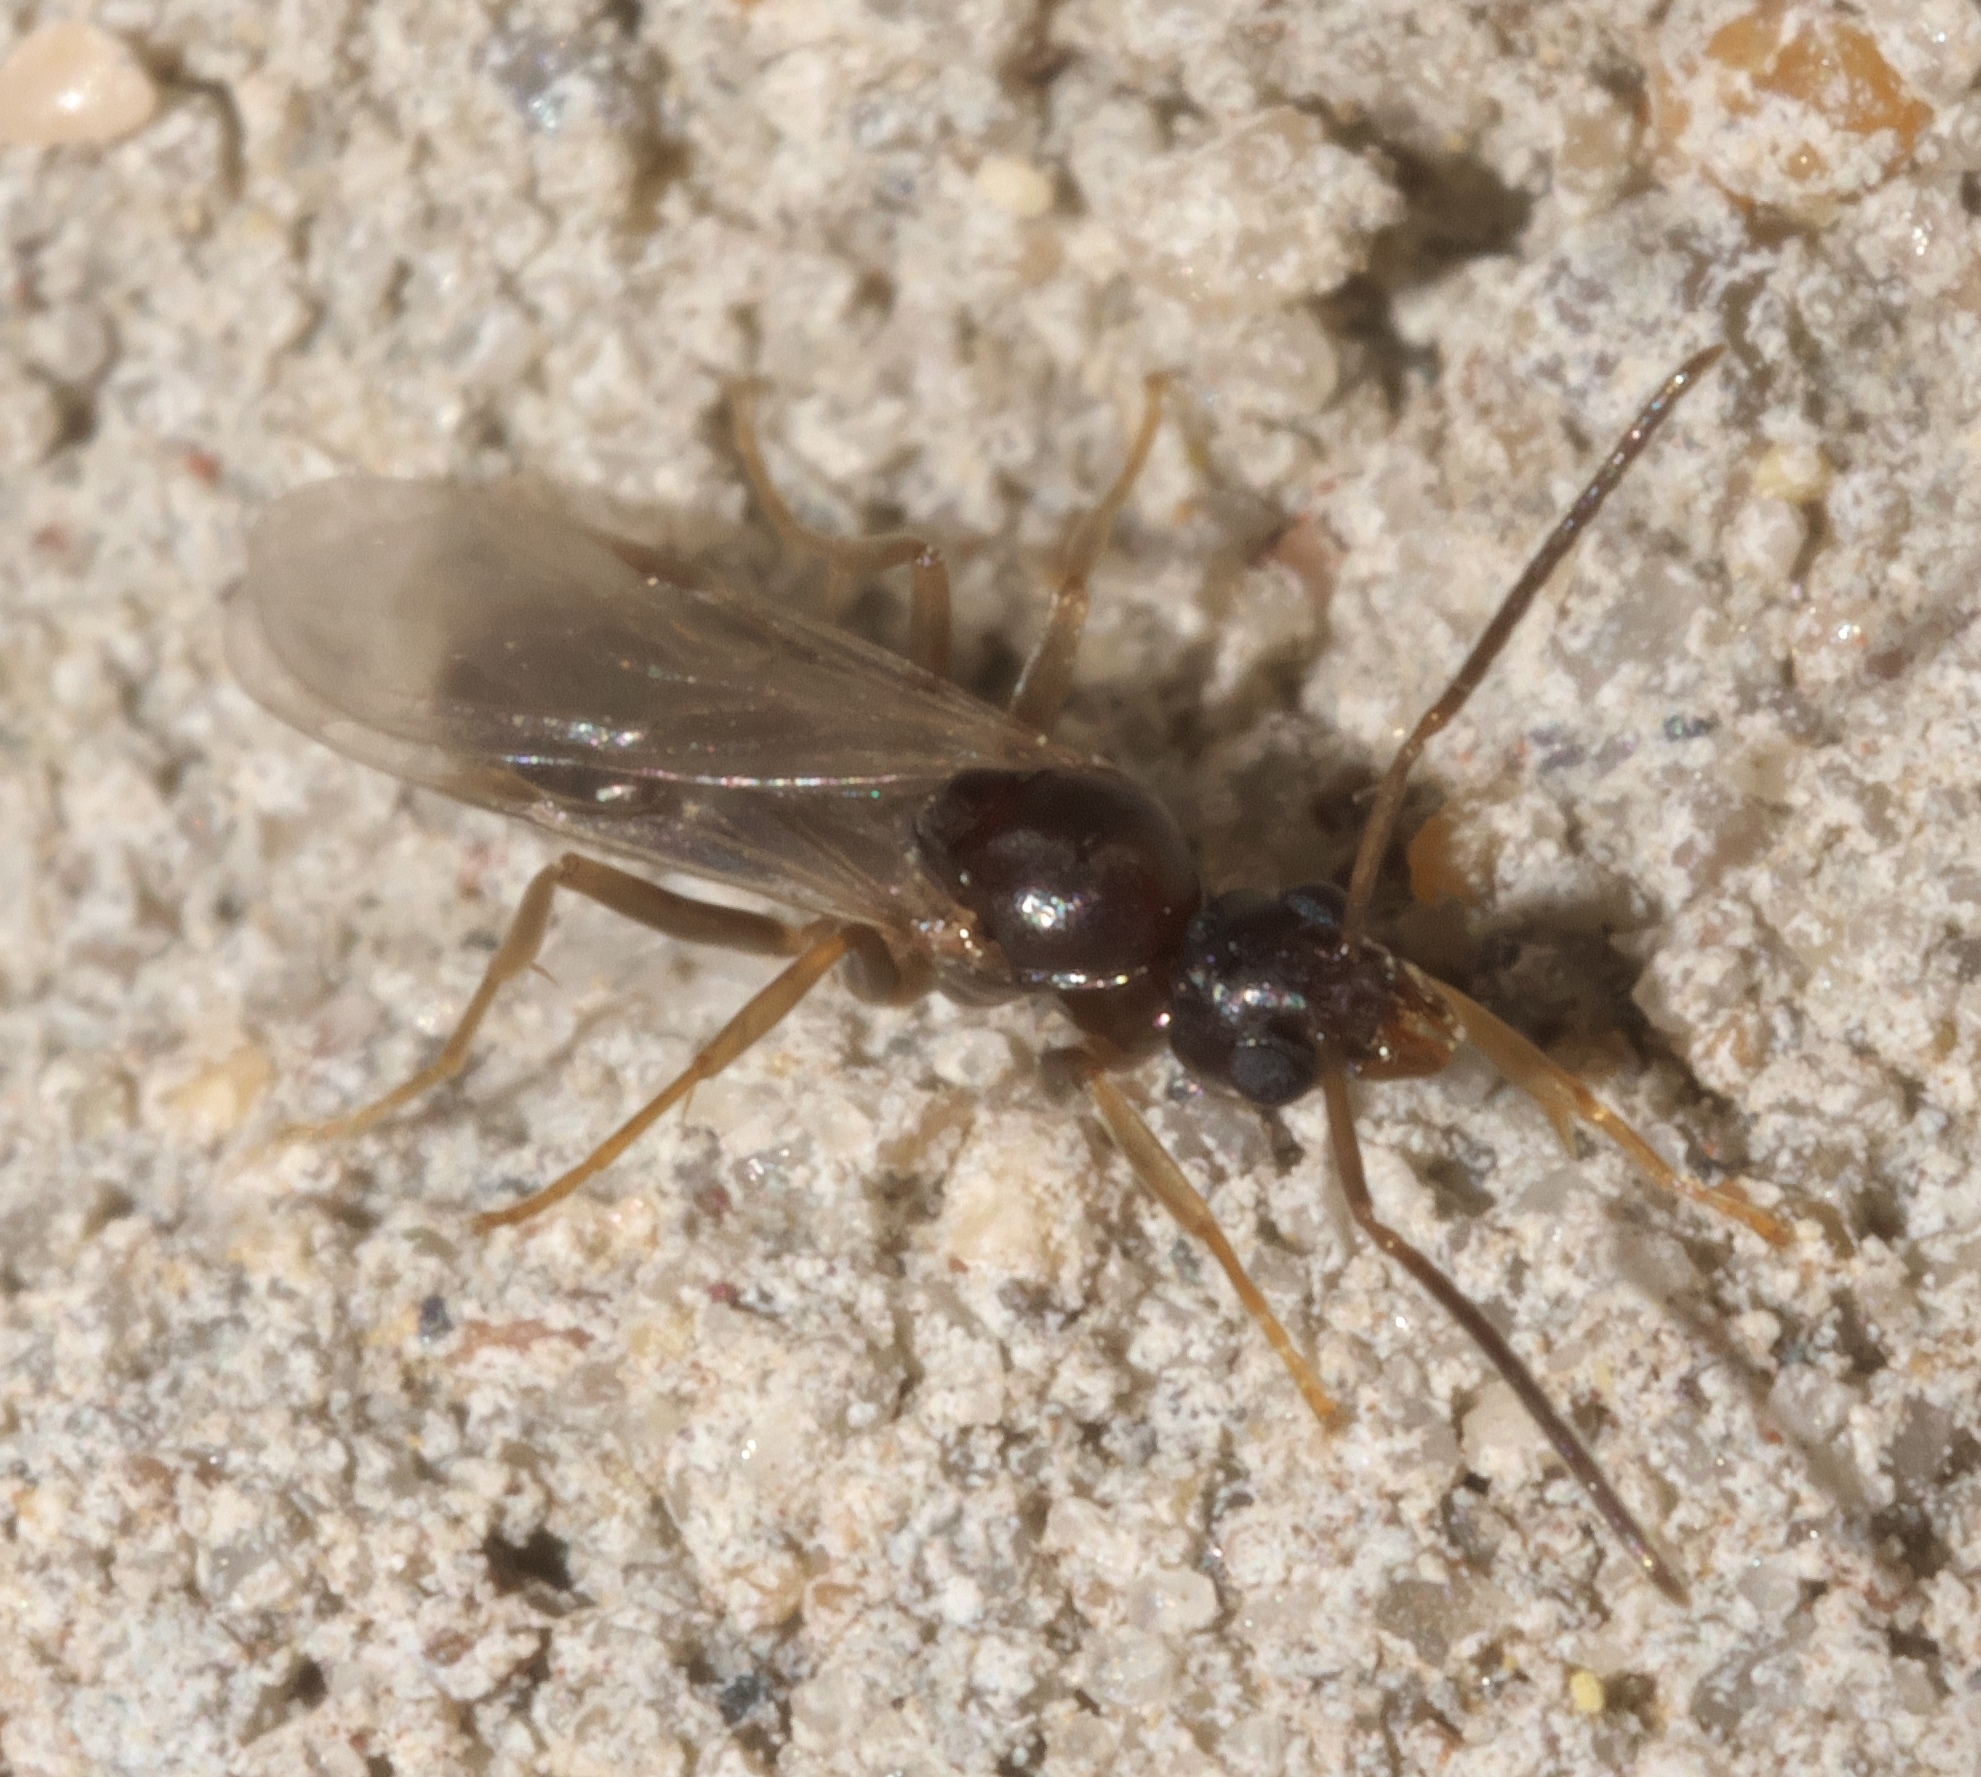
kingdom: Animalia
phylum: Arthropoda
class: Insecta
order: Hymenoptera
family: Formicidae
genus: Tapinoma
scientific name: Tapinoma sessile
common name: Odorous house ant
